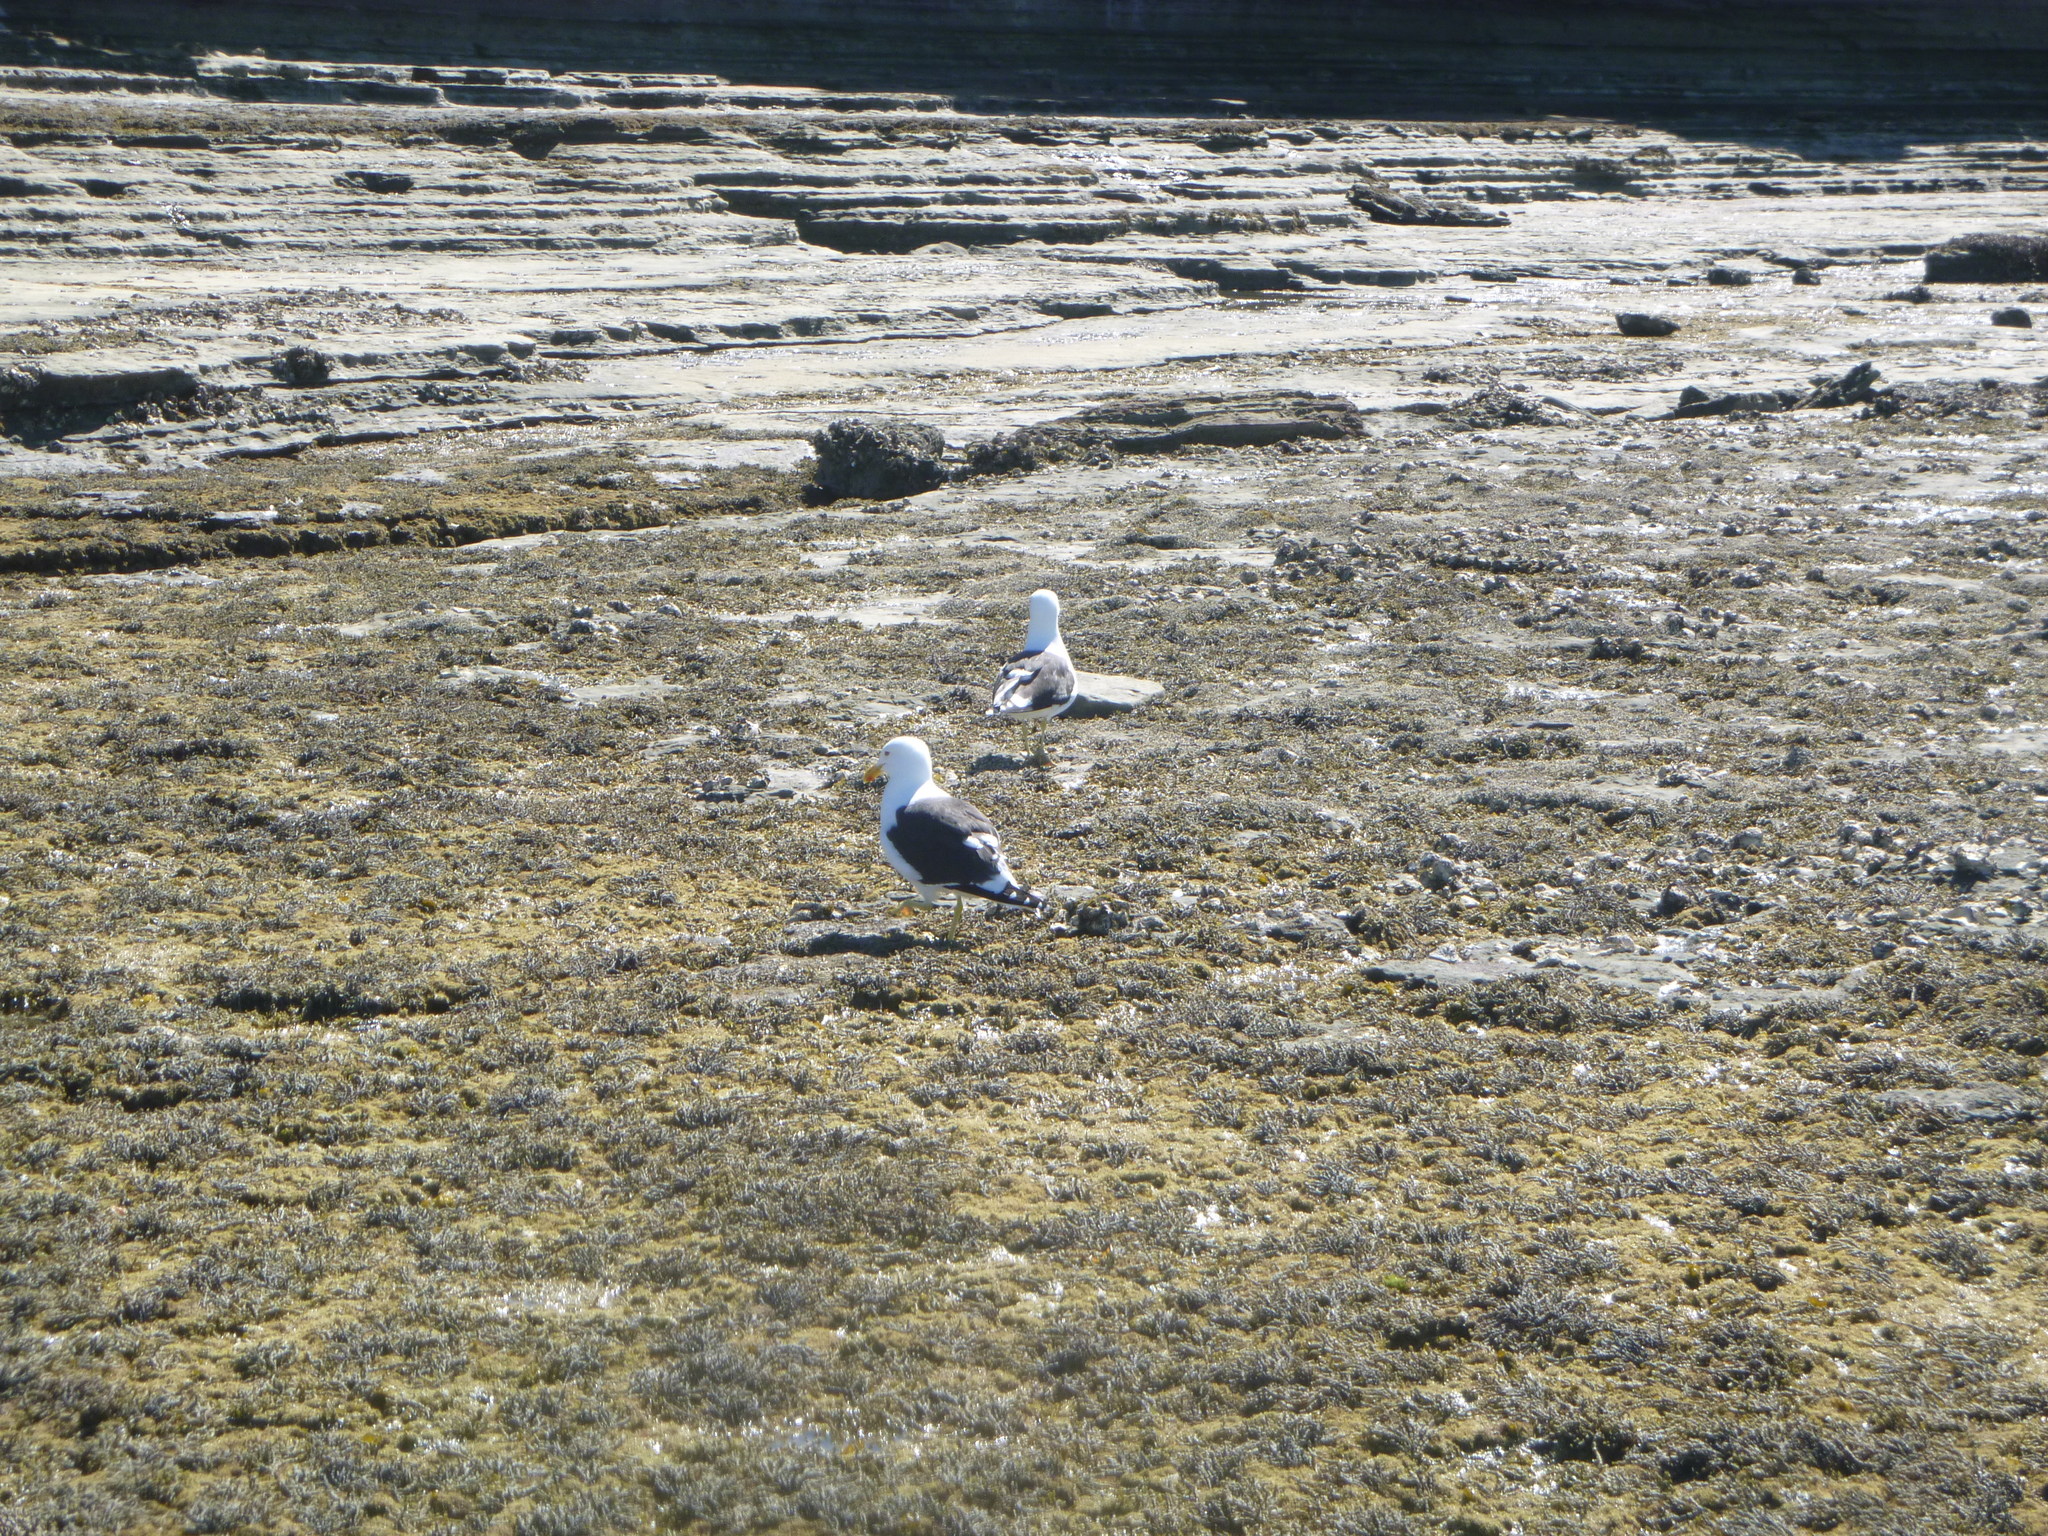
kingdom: Animalia
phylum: Chordata
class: Aves
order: Charadriiformes
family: Laridae
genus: Larus
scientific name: Larus dominicanus
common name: Kelp gull
